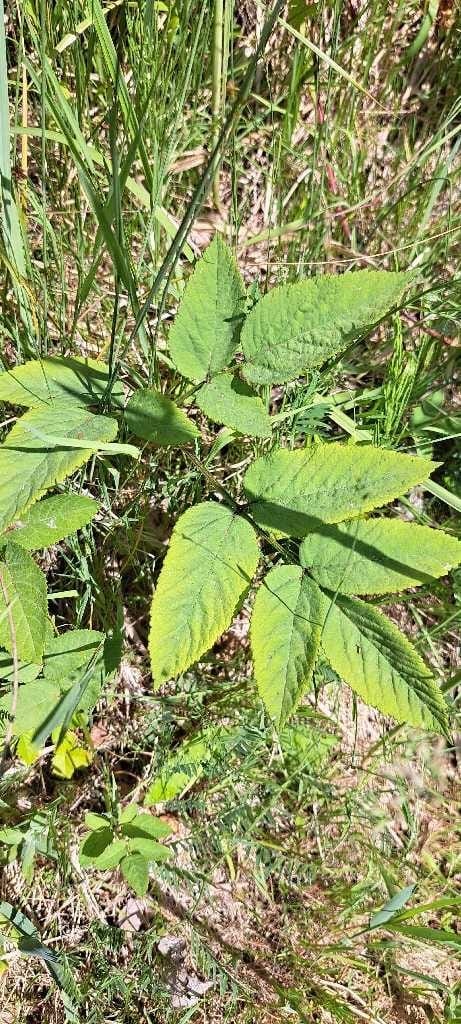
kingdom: Plantae
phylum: Tracheophyta
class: Magnoliopsida
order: Apiales
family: Apiaceae
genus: Angelica
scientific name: Angelica sylvestris
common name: Wild angelica
